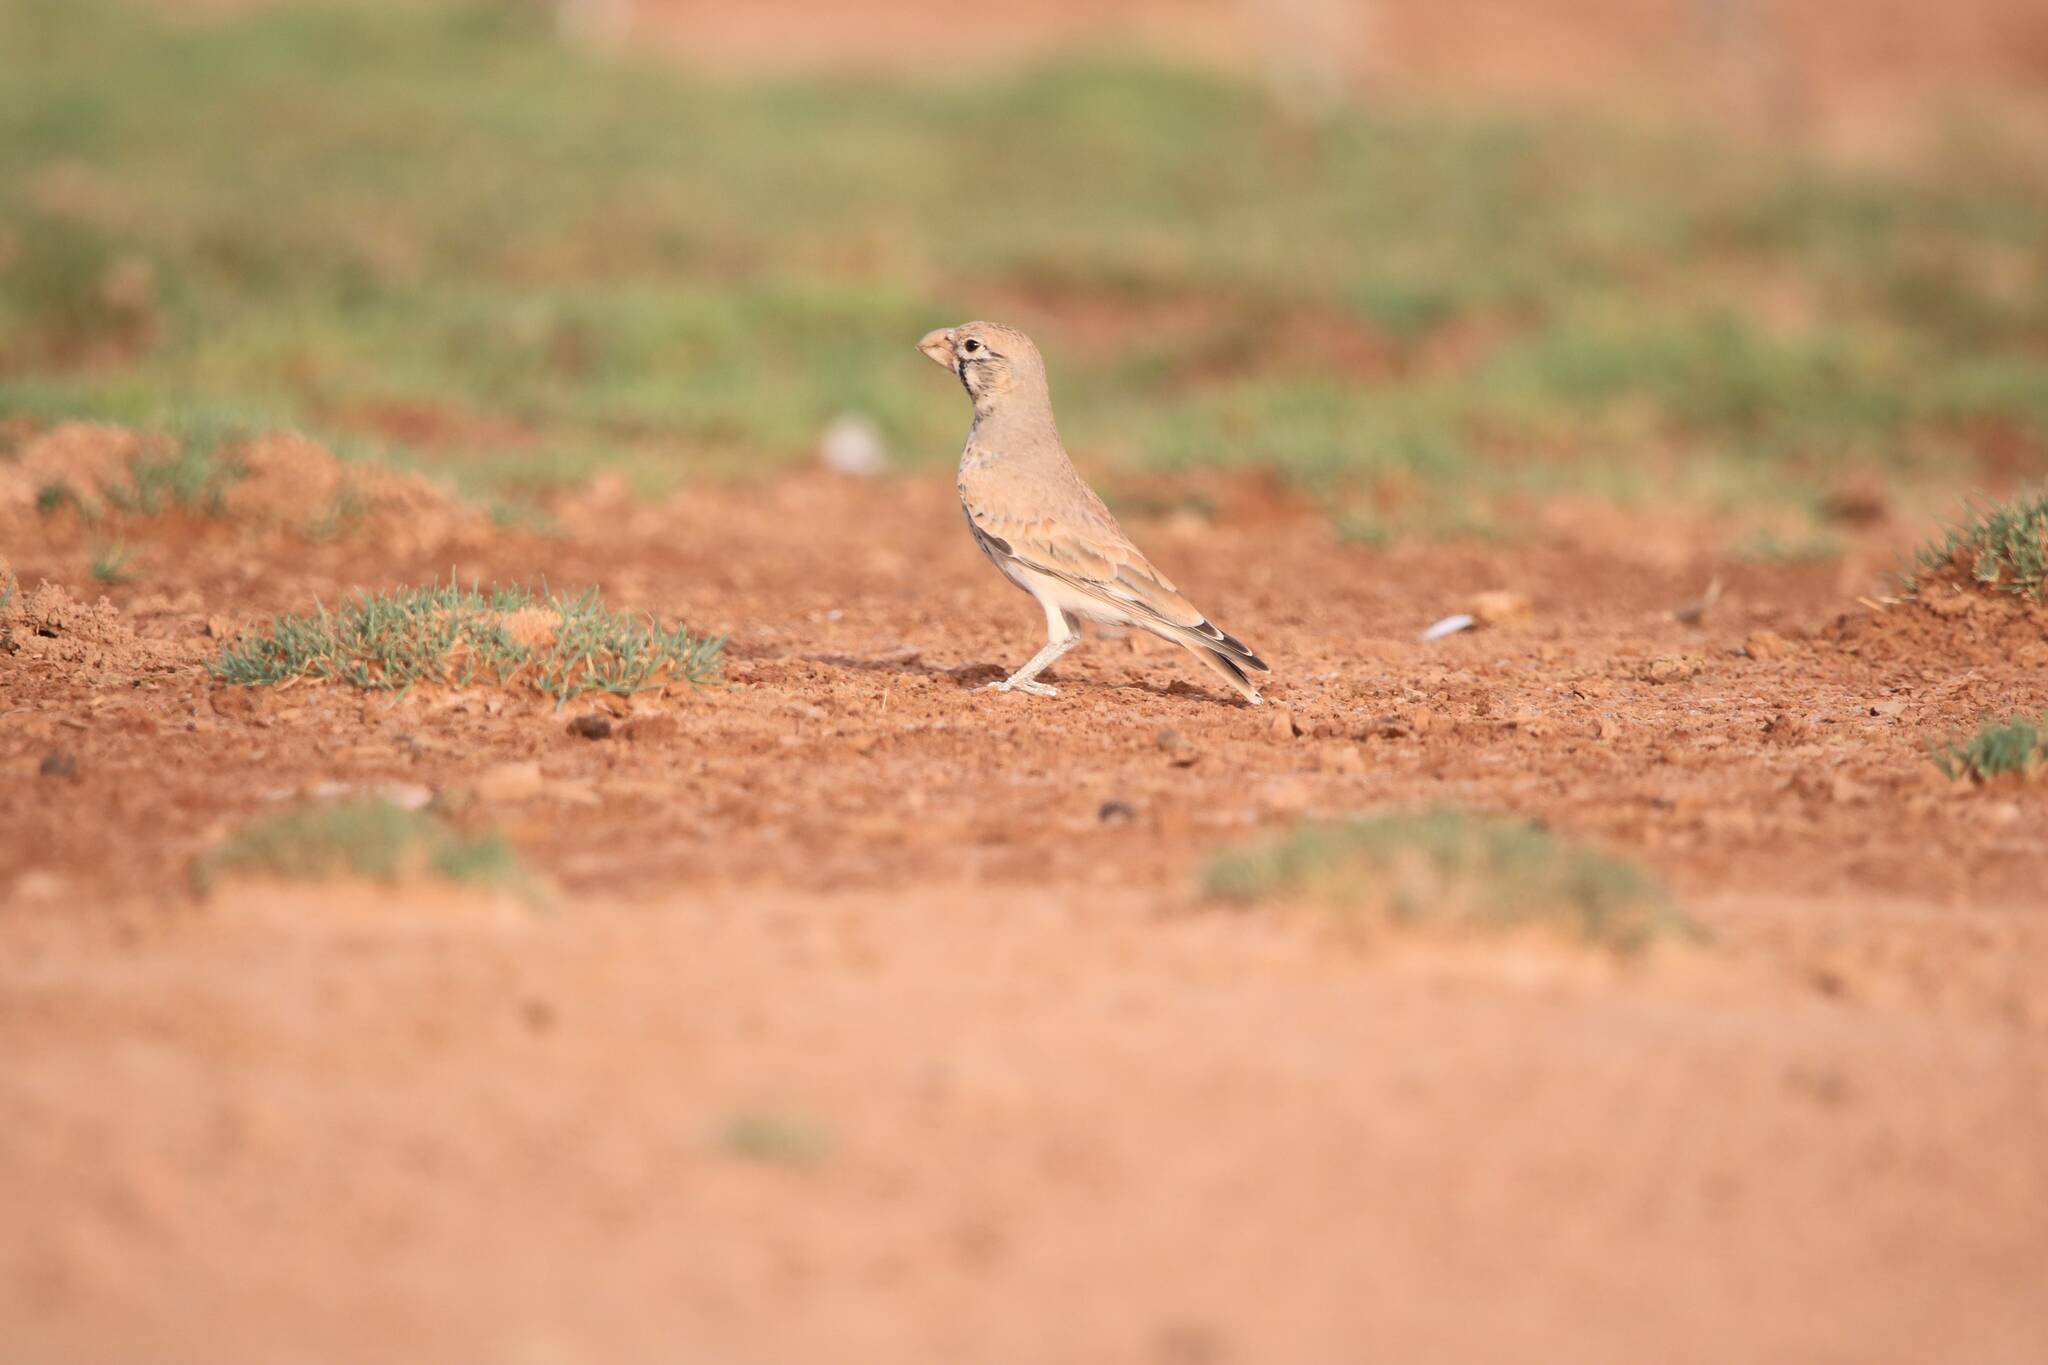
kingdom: Animalia
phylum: Chordata
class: Aves
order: Passeriformes
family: Alaudidae
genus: Ramphocoris
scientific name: Ramphocoris clotbey
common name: Thick-billed lark
